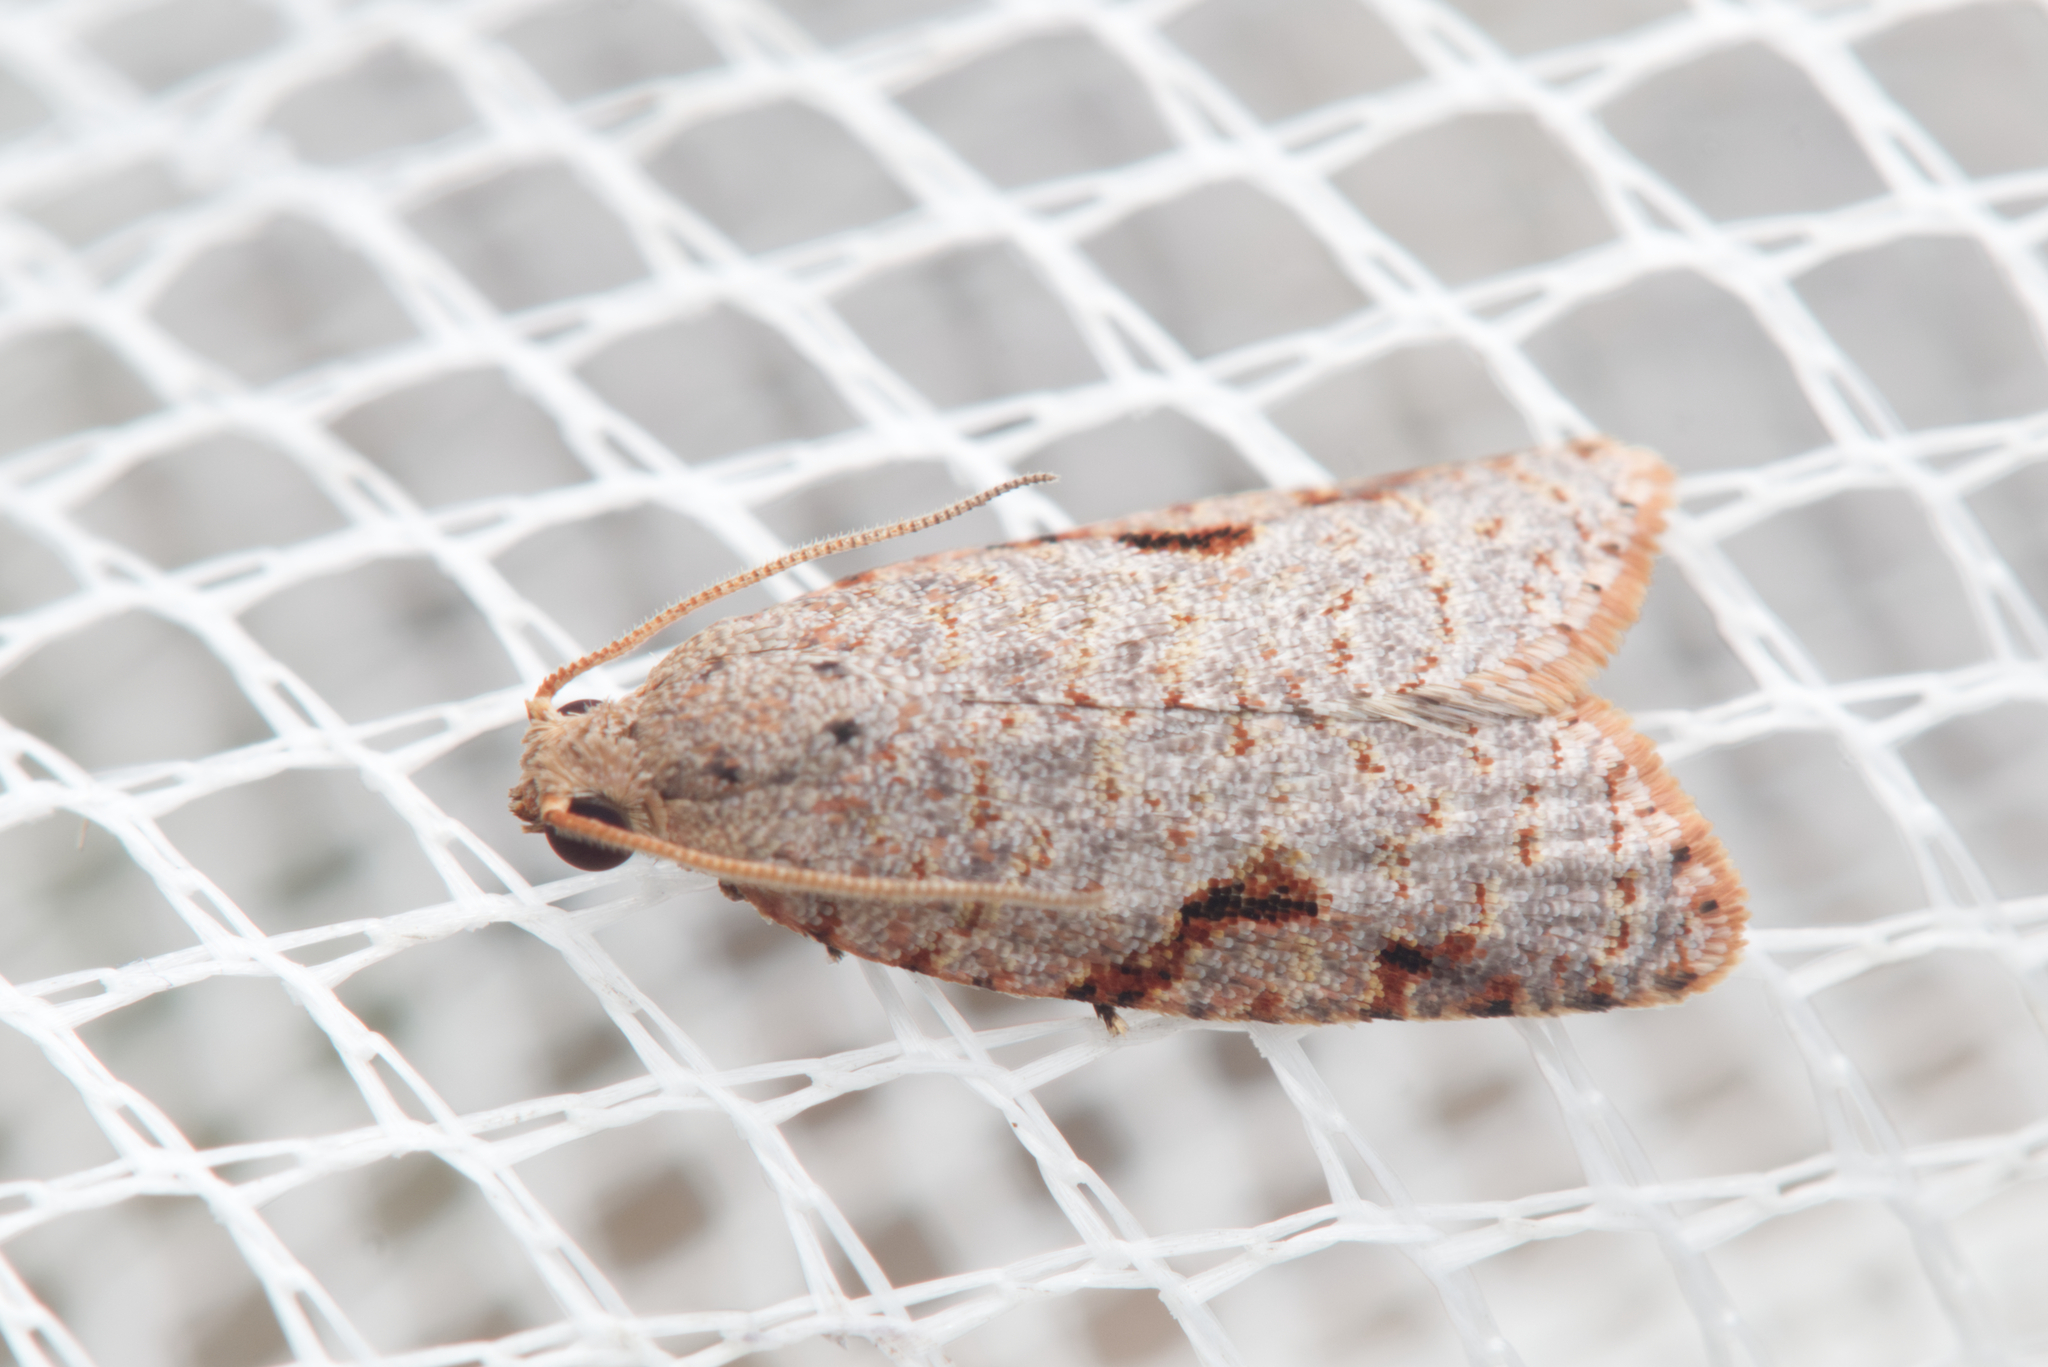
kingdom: Animalia
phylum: Arthropoda
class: Insecta
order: Lepidoptera
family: Tortricidae
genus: Meritastis
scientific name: Meritastis piperata
